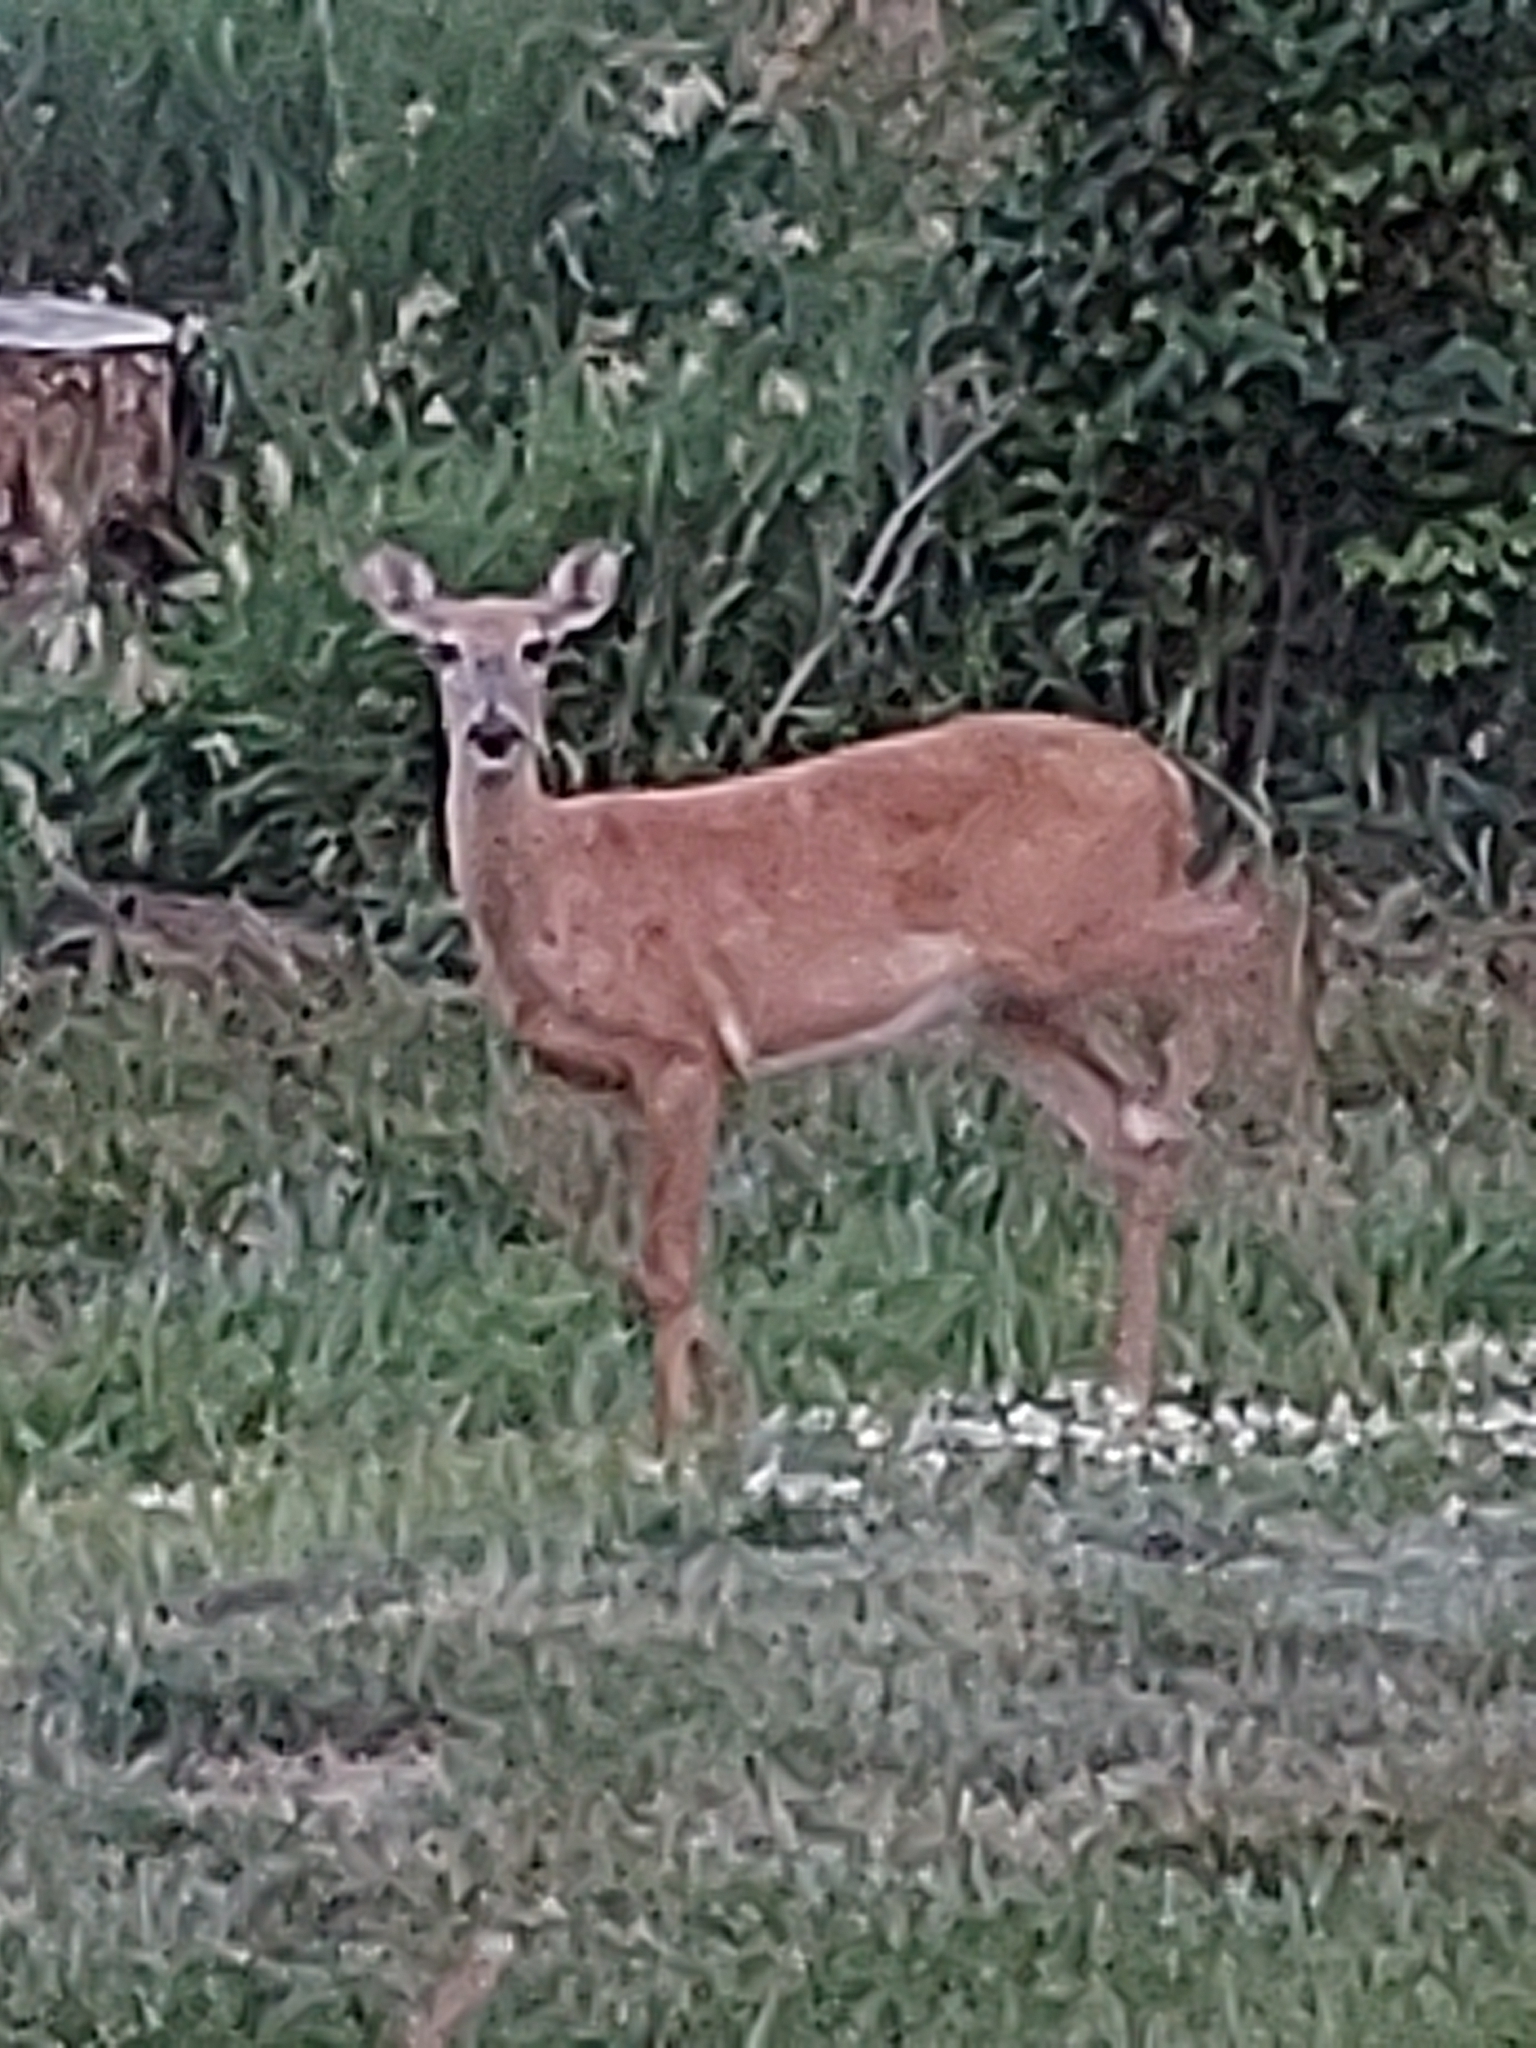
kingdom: Animalia
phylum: Chordata
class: Mammalia
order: Artiodactyla
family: Cervidae
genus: Odocoileus
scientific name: Odocoileus virginianus
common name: White-tailed deer
